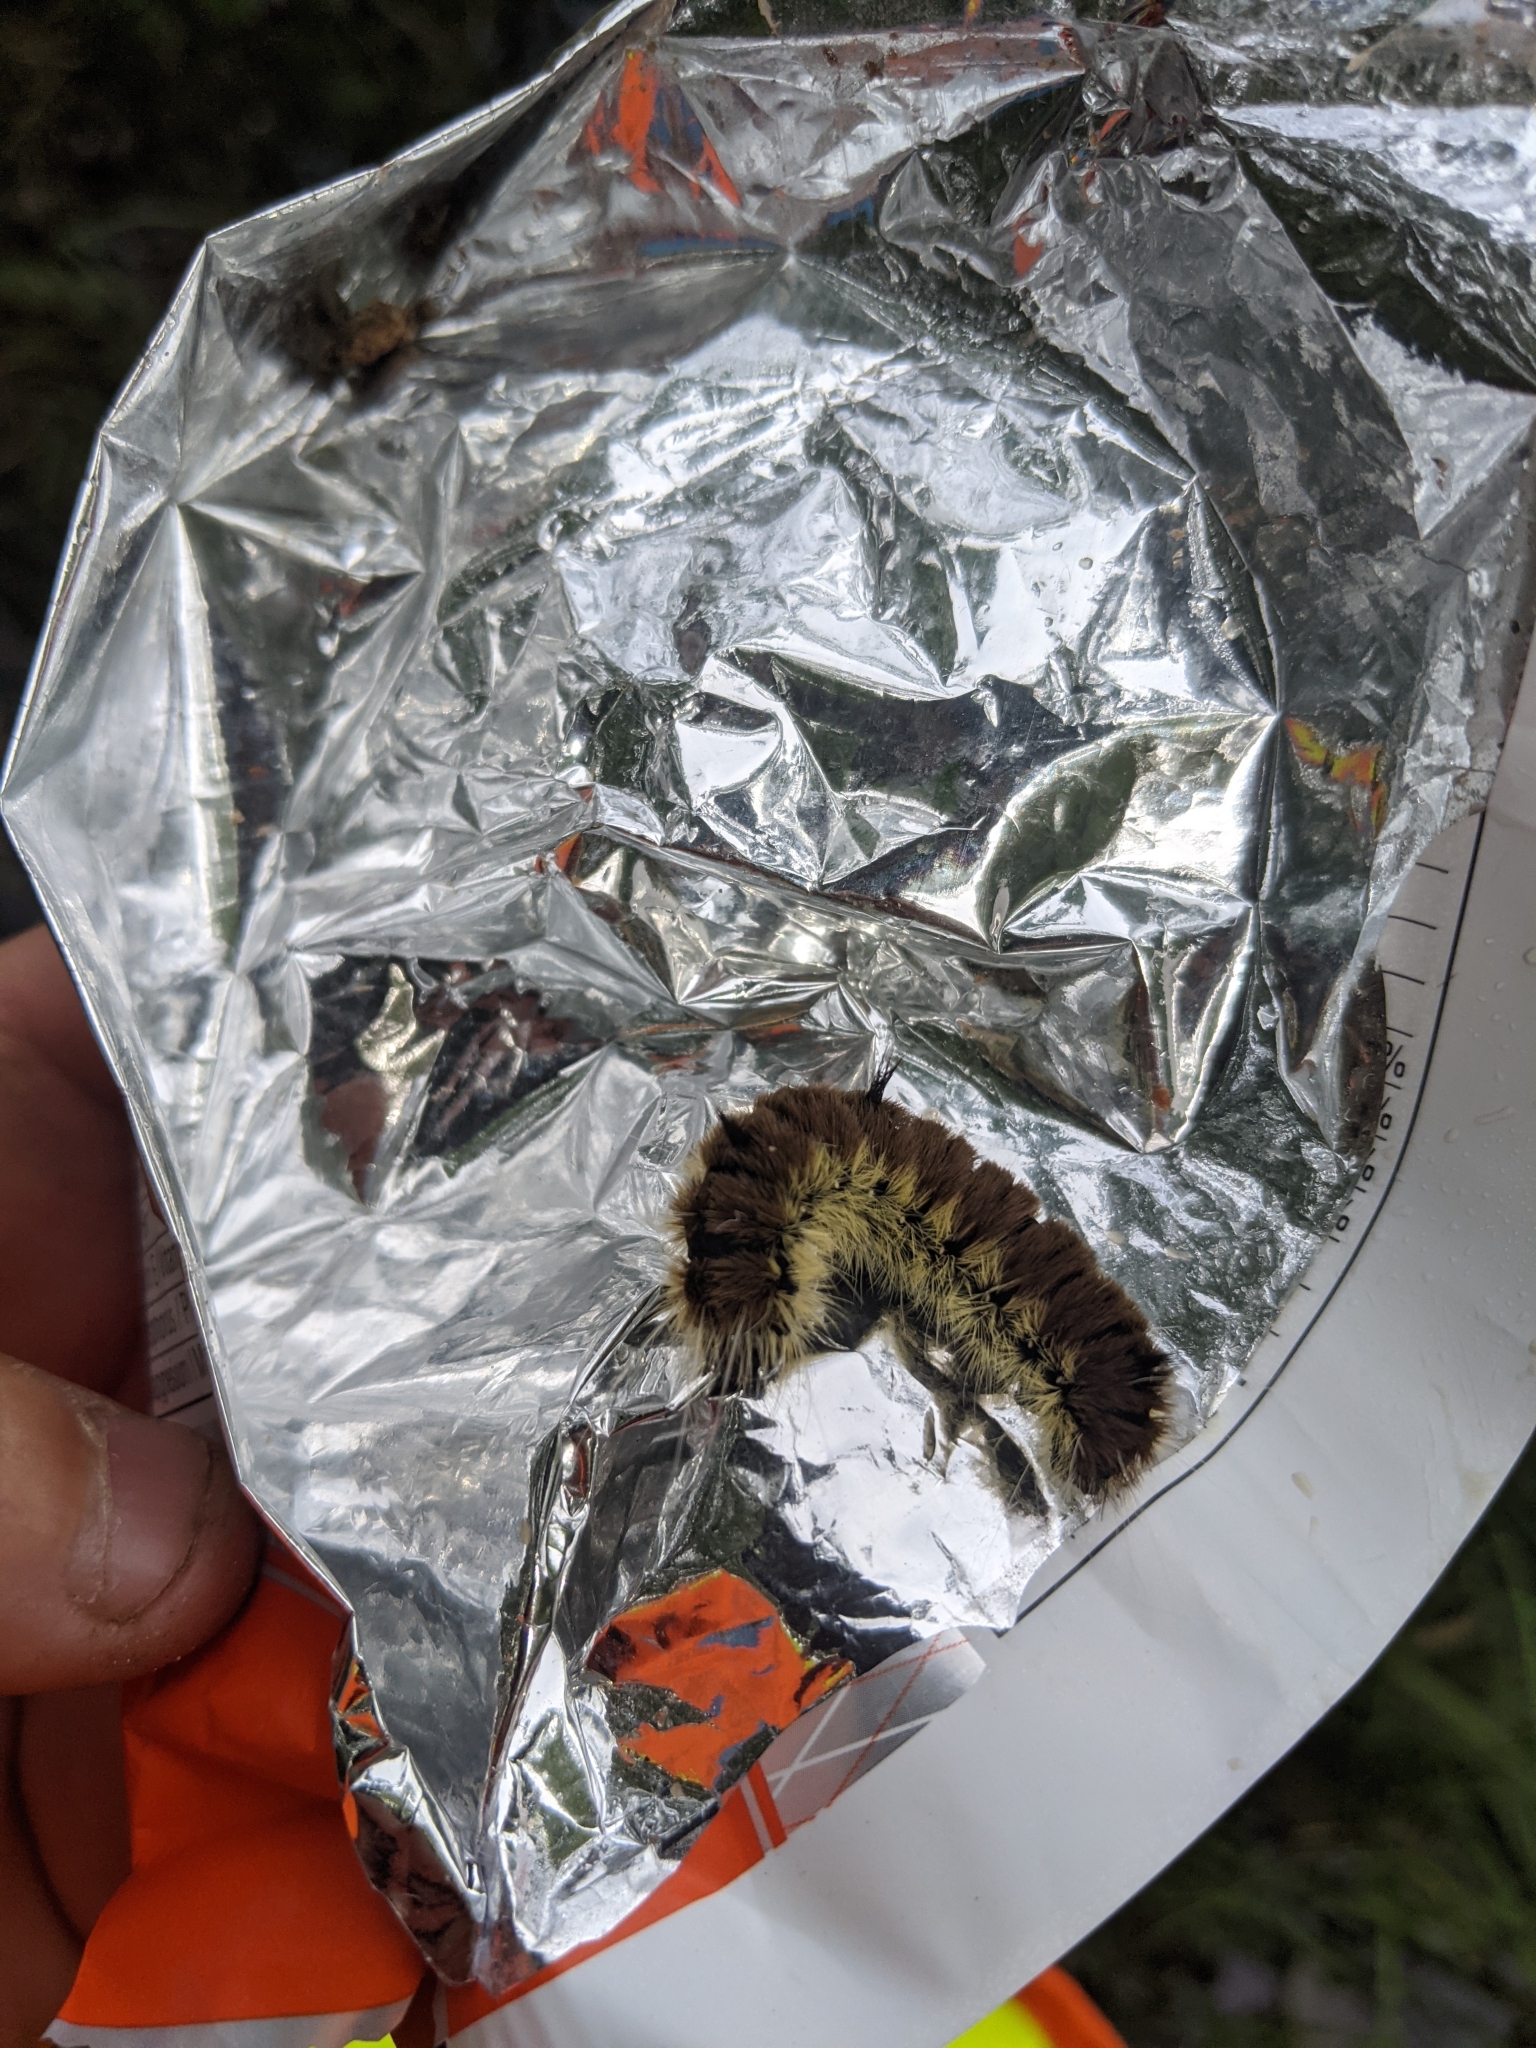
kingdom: Animalia
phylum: Arthropoda
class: Insecta
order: Lepidoptera
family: Noctuidae
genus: Acronicta
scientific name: Acronicta insita
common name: Large gray dagger
